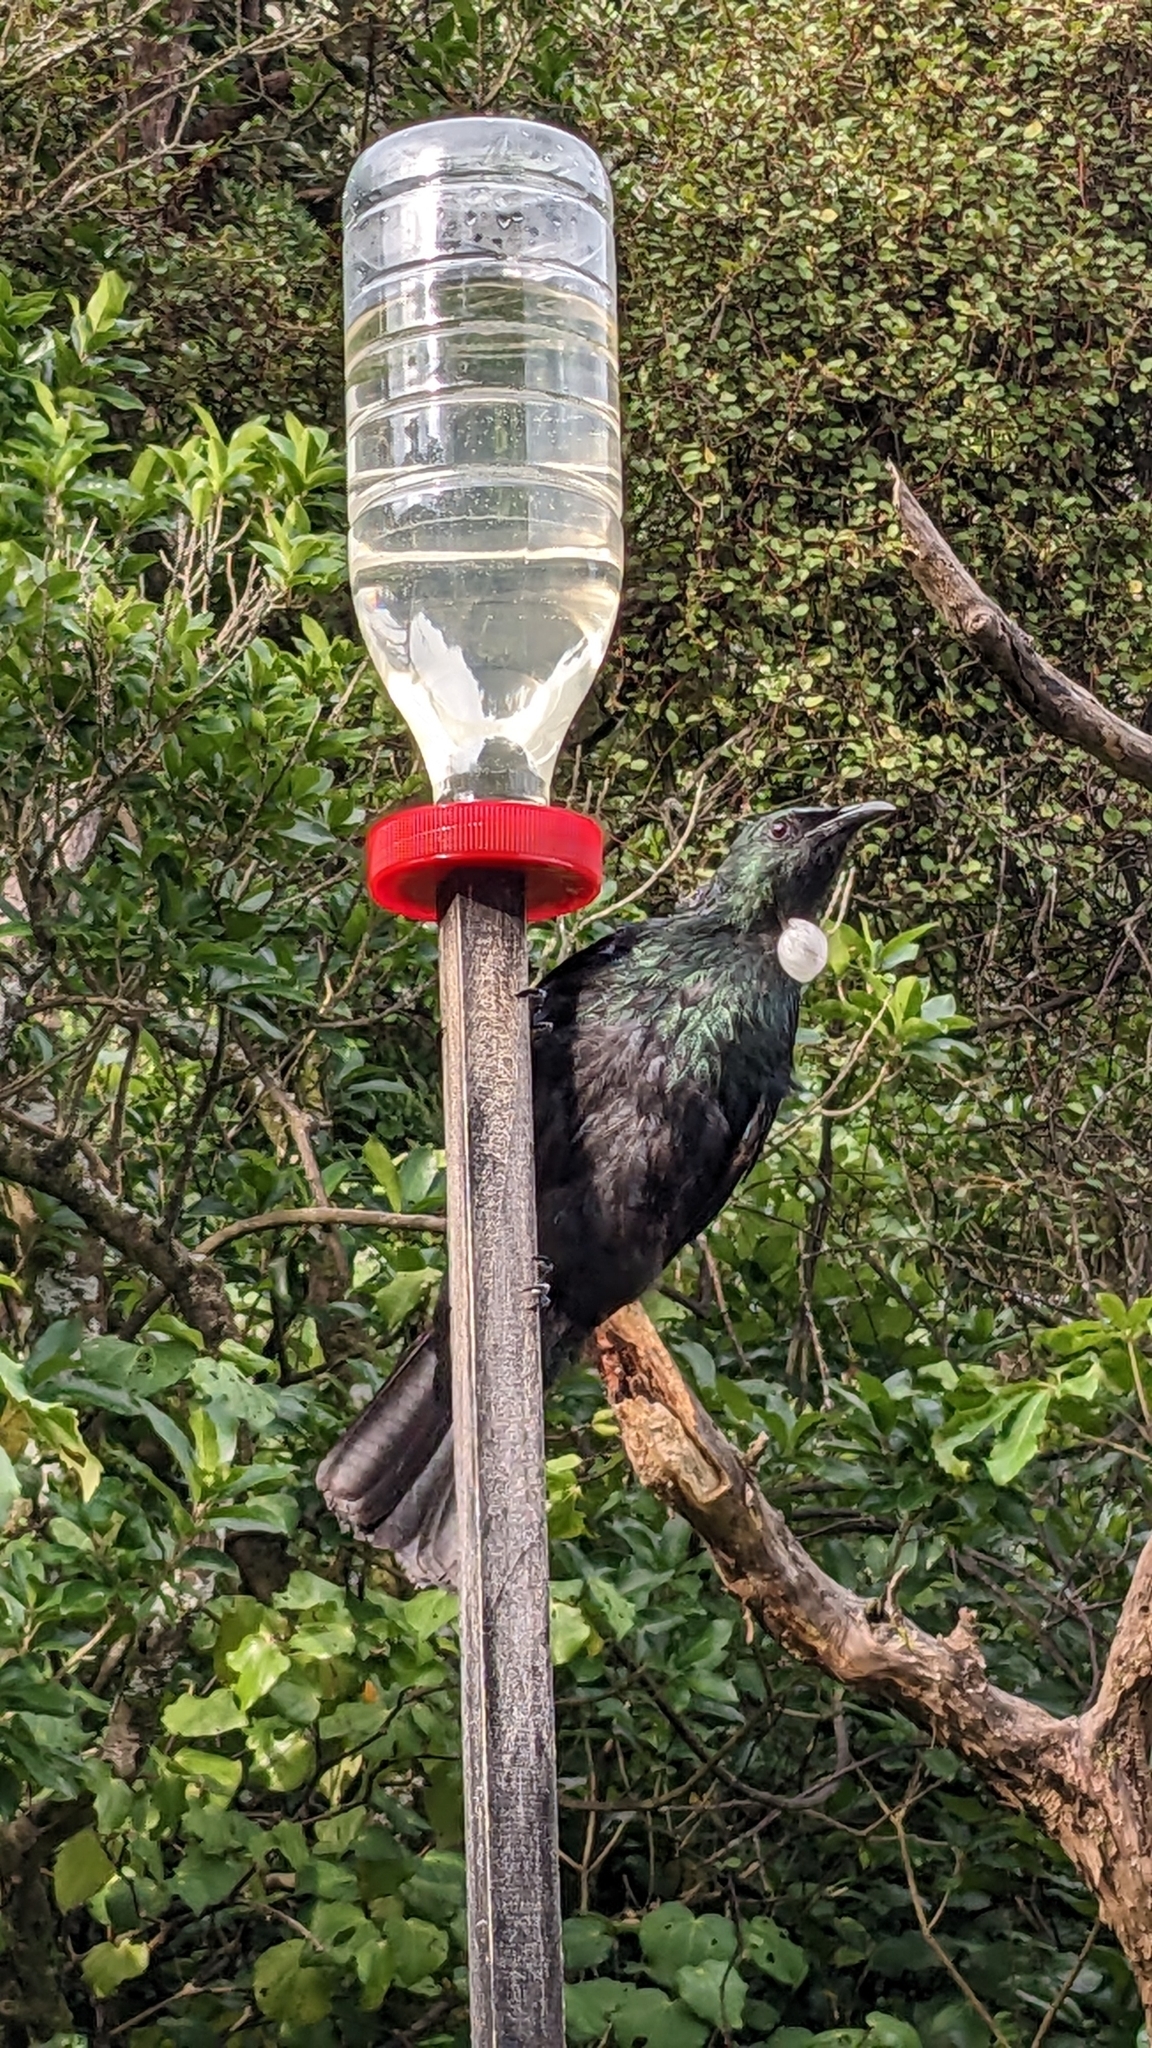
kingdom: Animalia
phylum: Chordata
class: Aves
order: Passeriformes
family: Meliphagidae
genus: Prosthemadera
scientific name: Prosthemadera novaeseelandiae
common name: Tui
